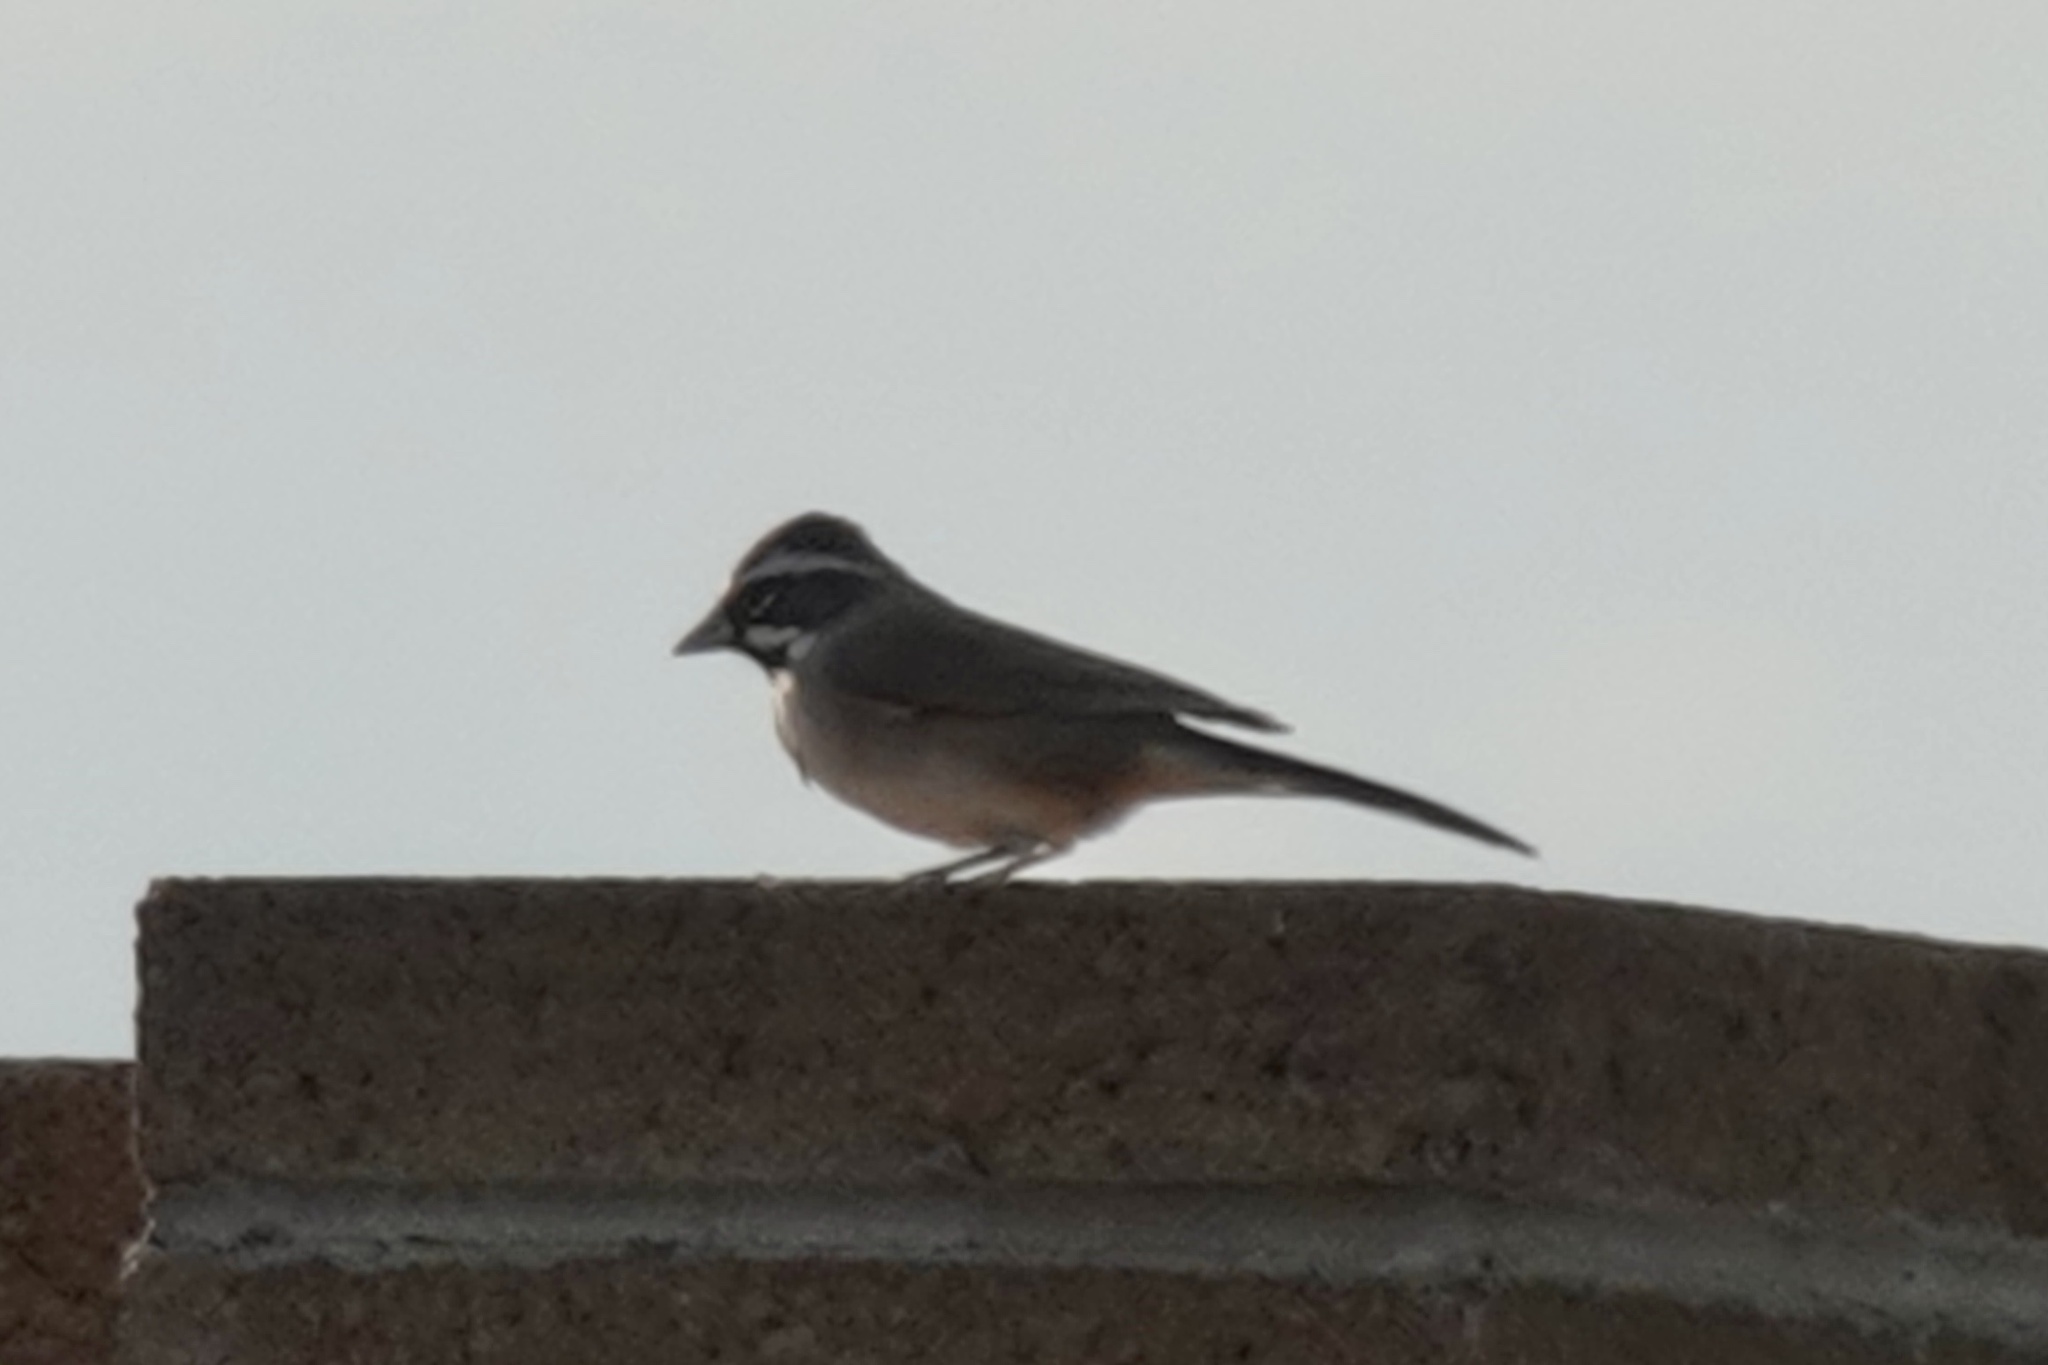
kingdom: Animalia
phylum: Chordata
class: Aves
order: Passeriformes
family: Passerellidae
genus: Amphispiza
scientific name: Amphispiza bilineata
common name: Black-throated sparrow
